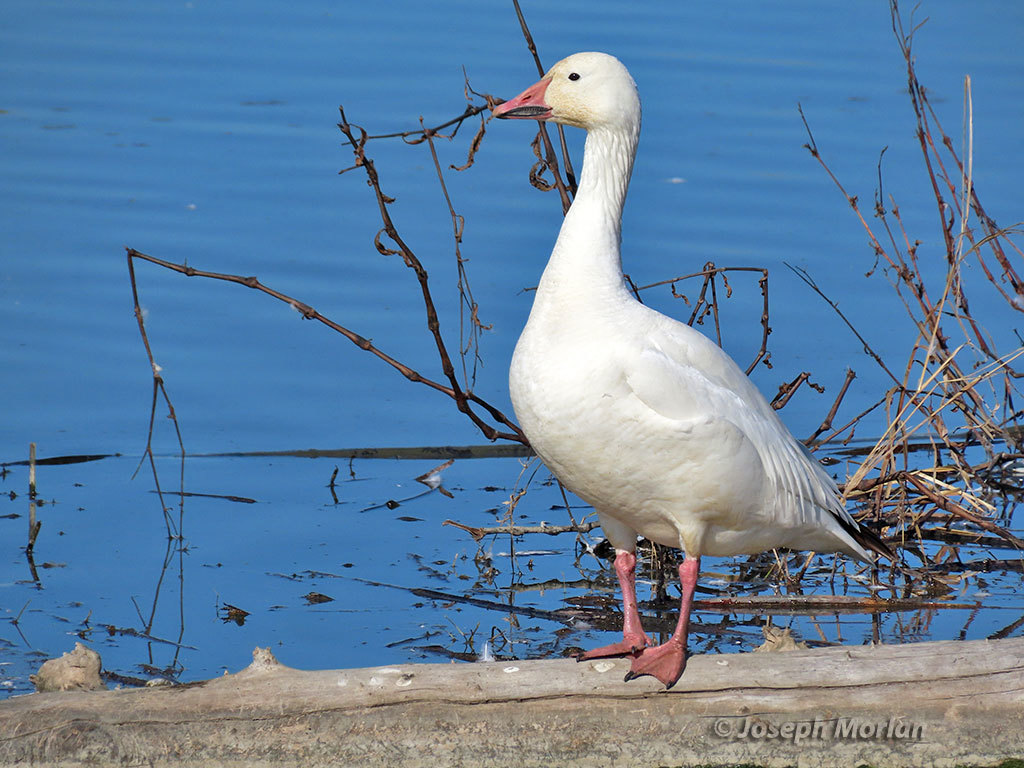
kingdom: Animalia
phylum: Chordata
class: Aves
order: Anseriformes
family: Anatidae
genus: Anser
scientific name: Anser caerulescens
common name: Snow goose
